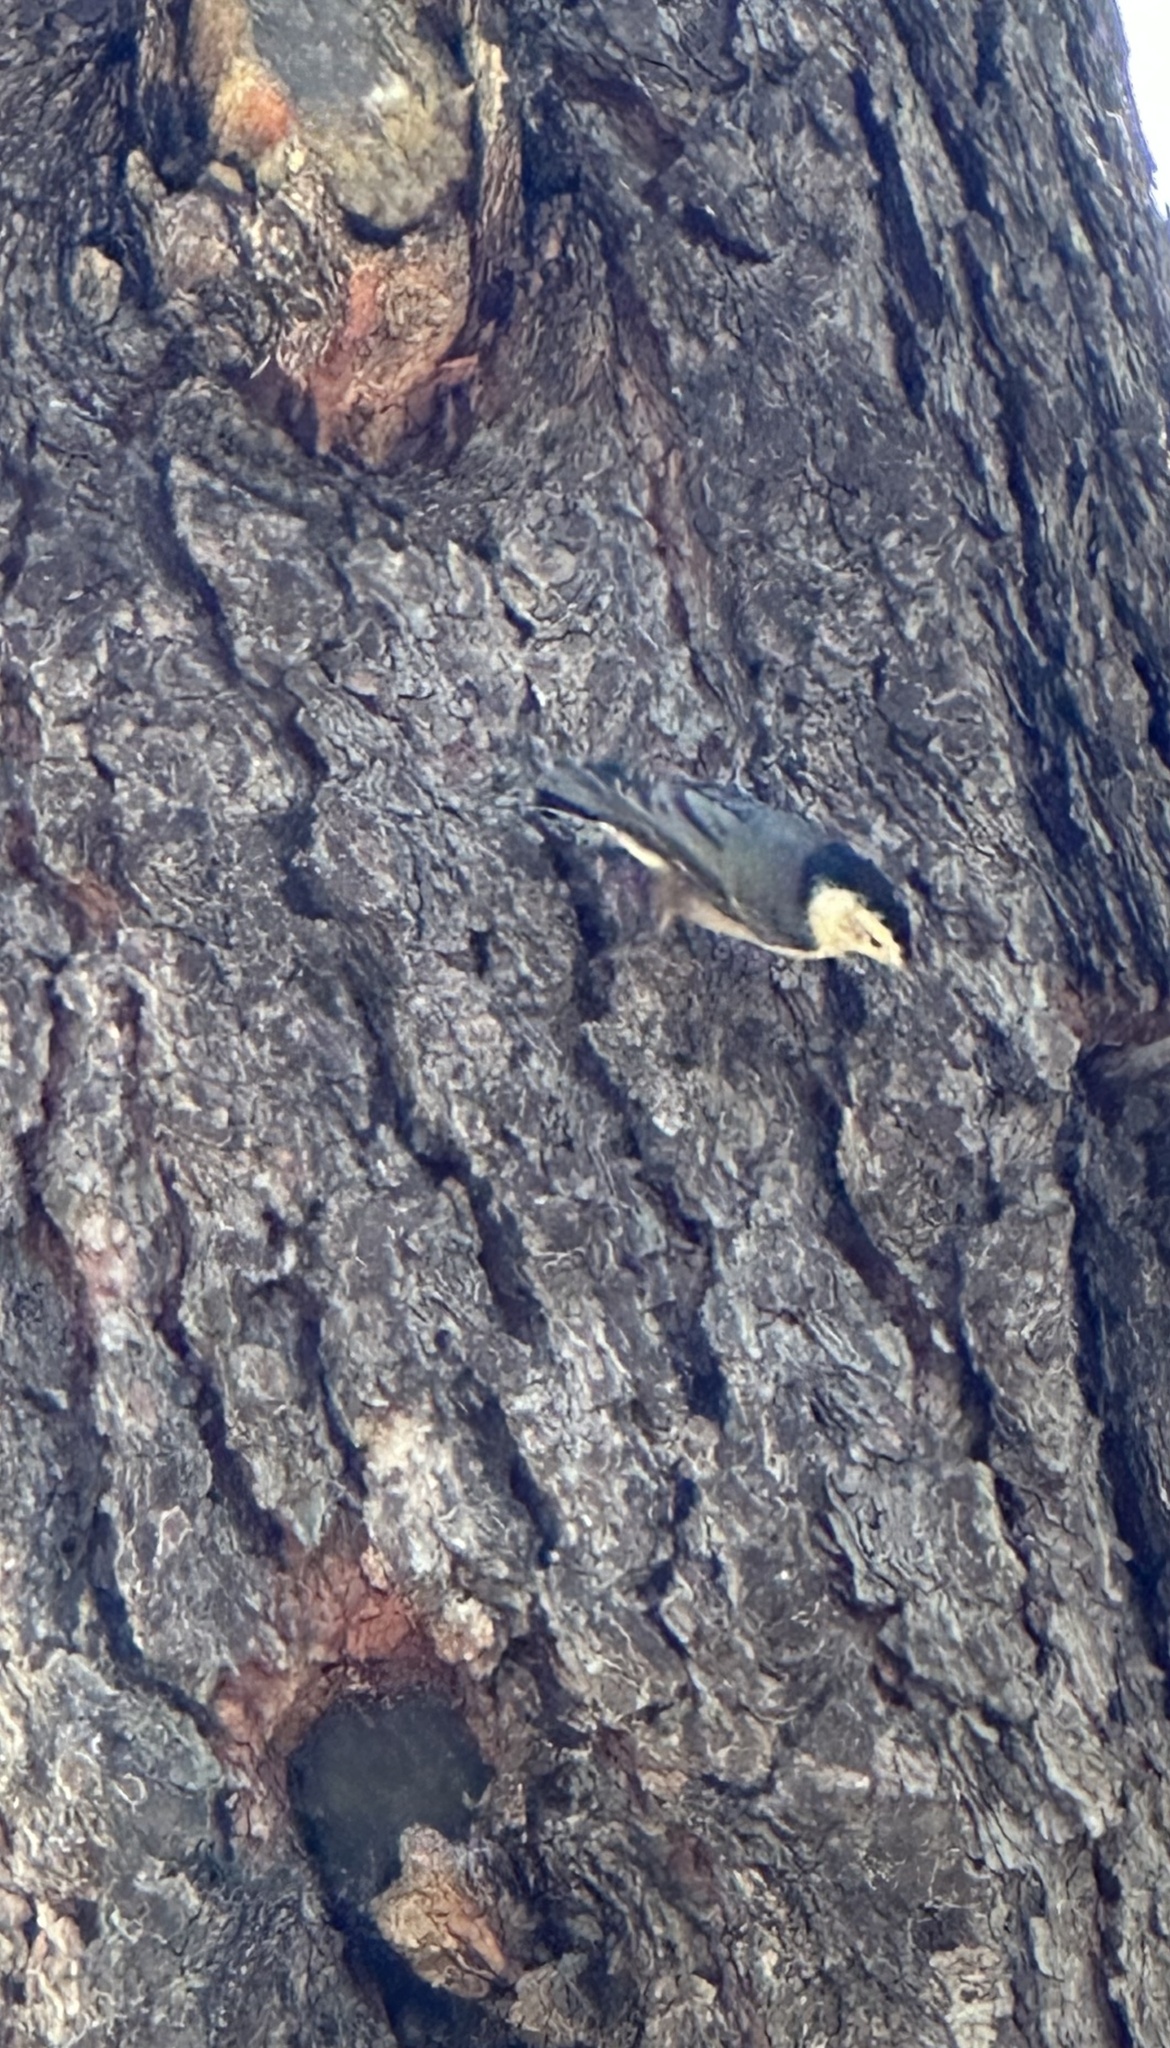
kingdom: Animalia
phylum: Chordata
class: Aves
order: Passeriformes
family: Sittidae
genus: Sitta
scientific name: Sitta carolinensis
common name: White-breasted nuthatch
